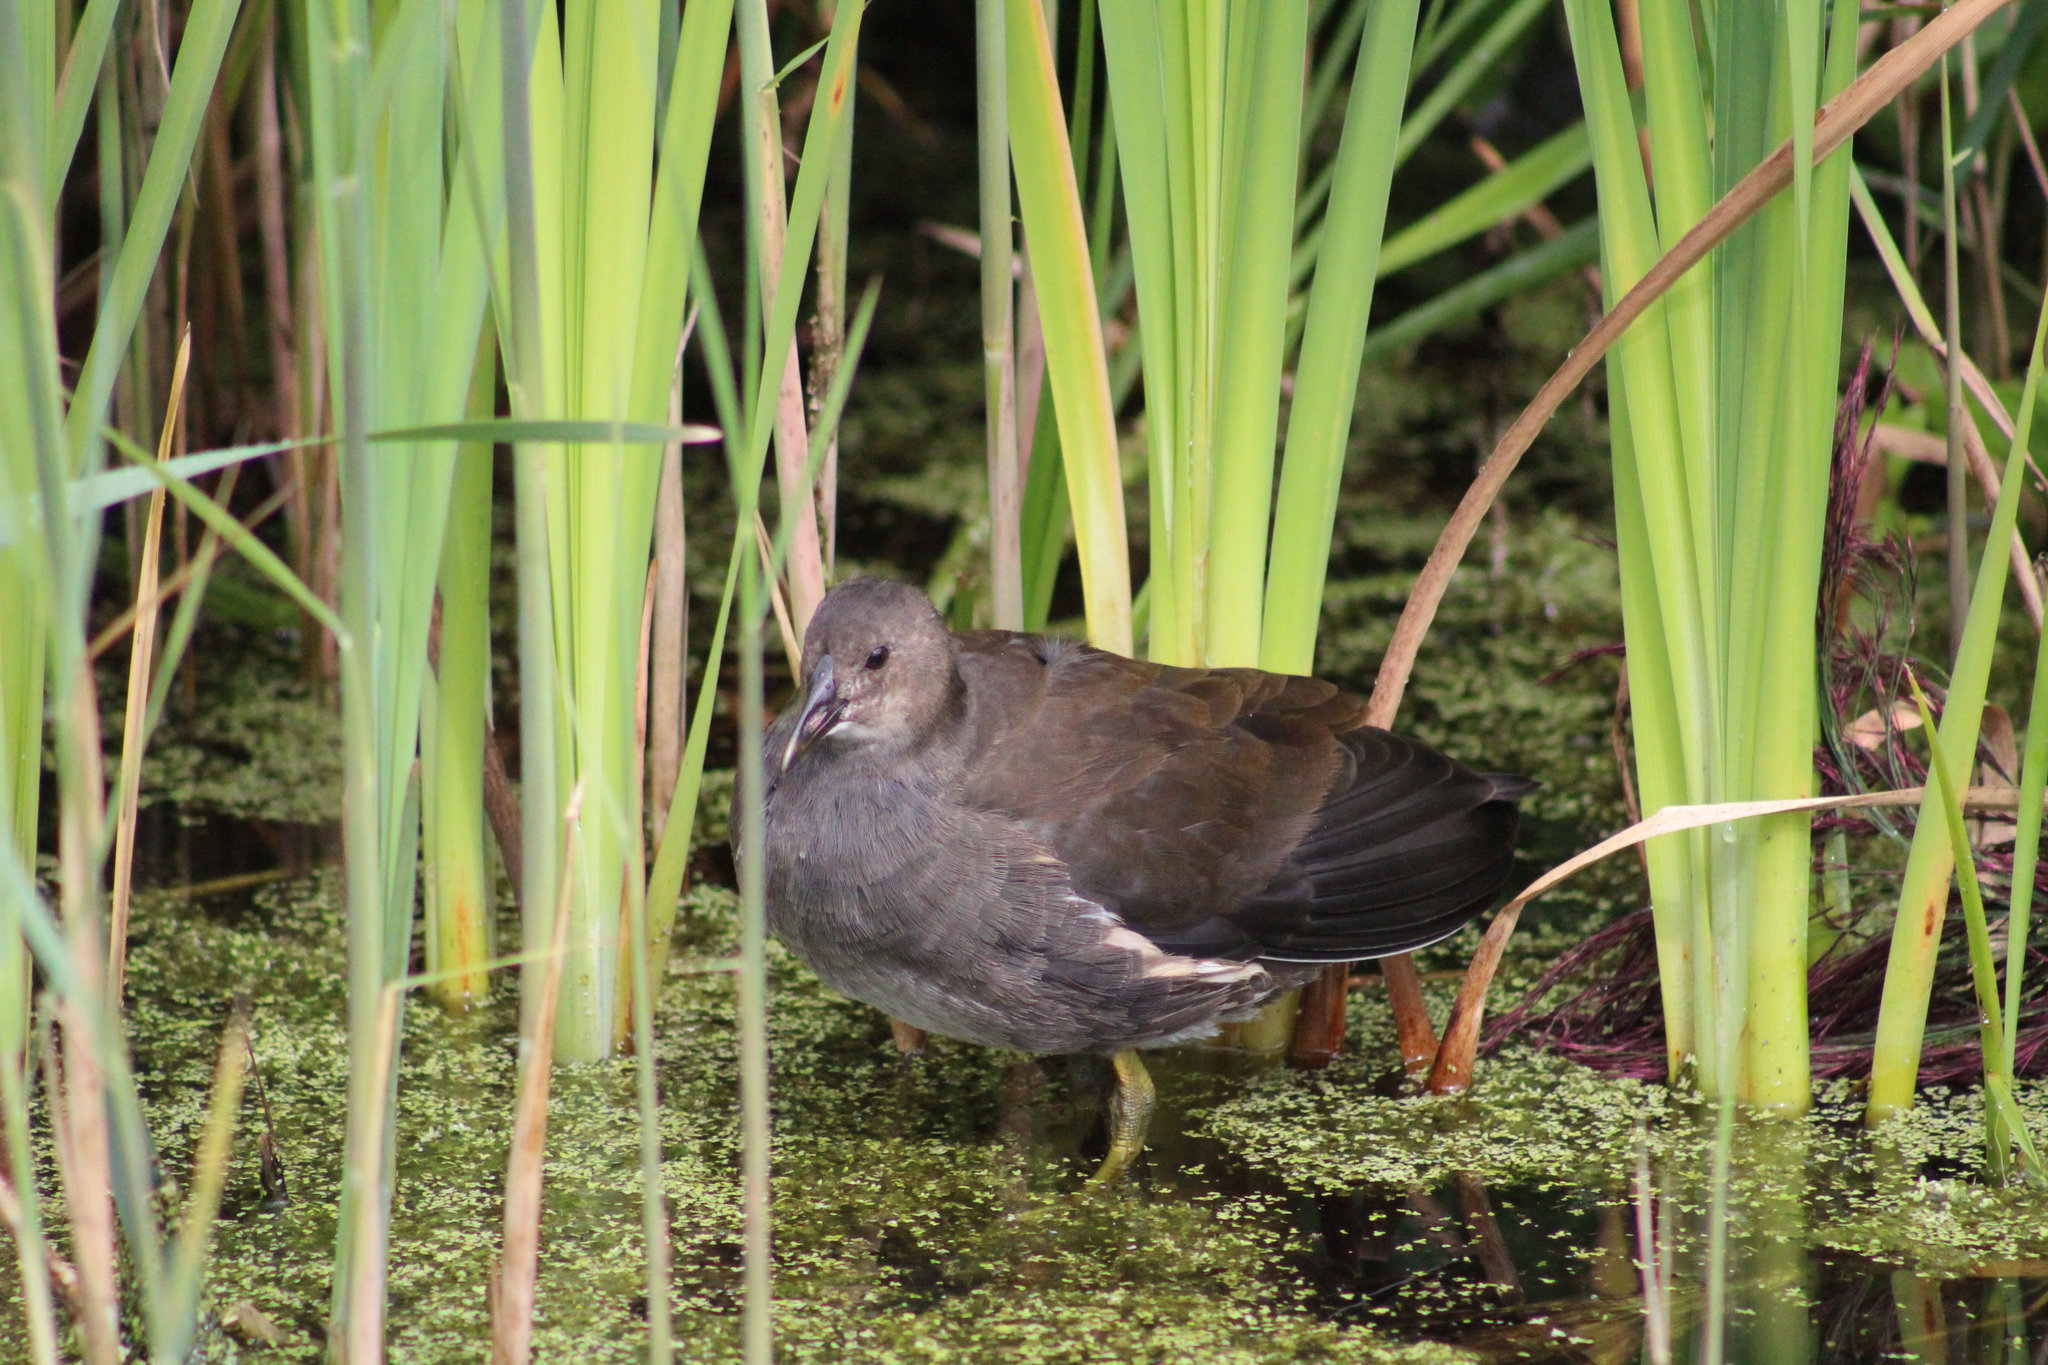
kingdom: Animalia
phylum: Chordata
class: Aves
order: Gruiformes
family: Rallidae
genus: Gallinula
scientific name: Gallinula chloropus
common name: Common moorhen
